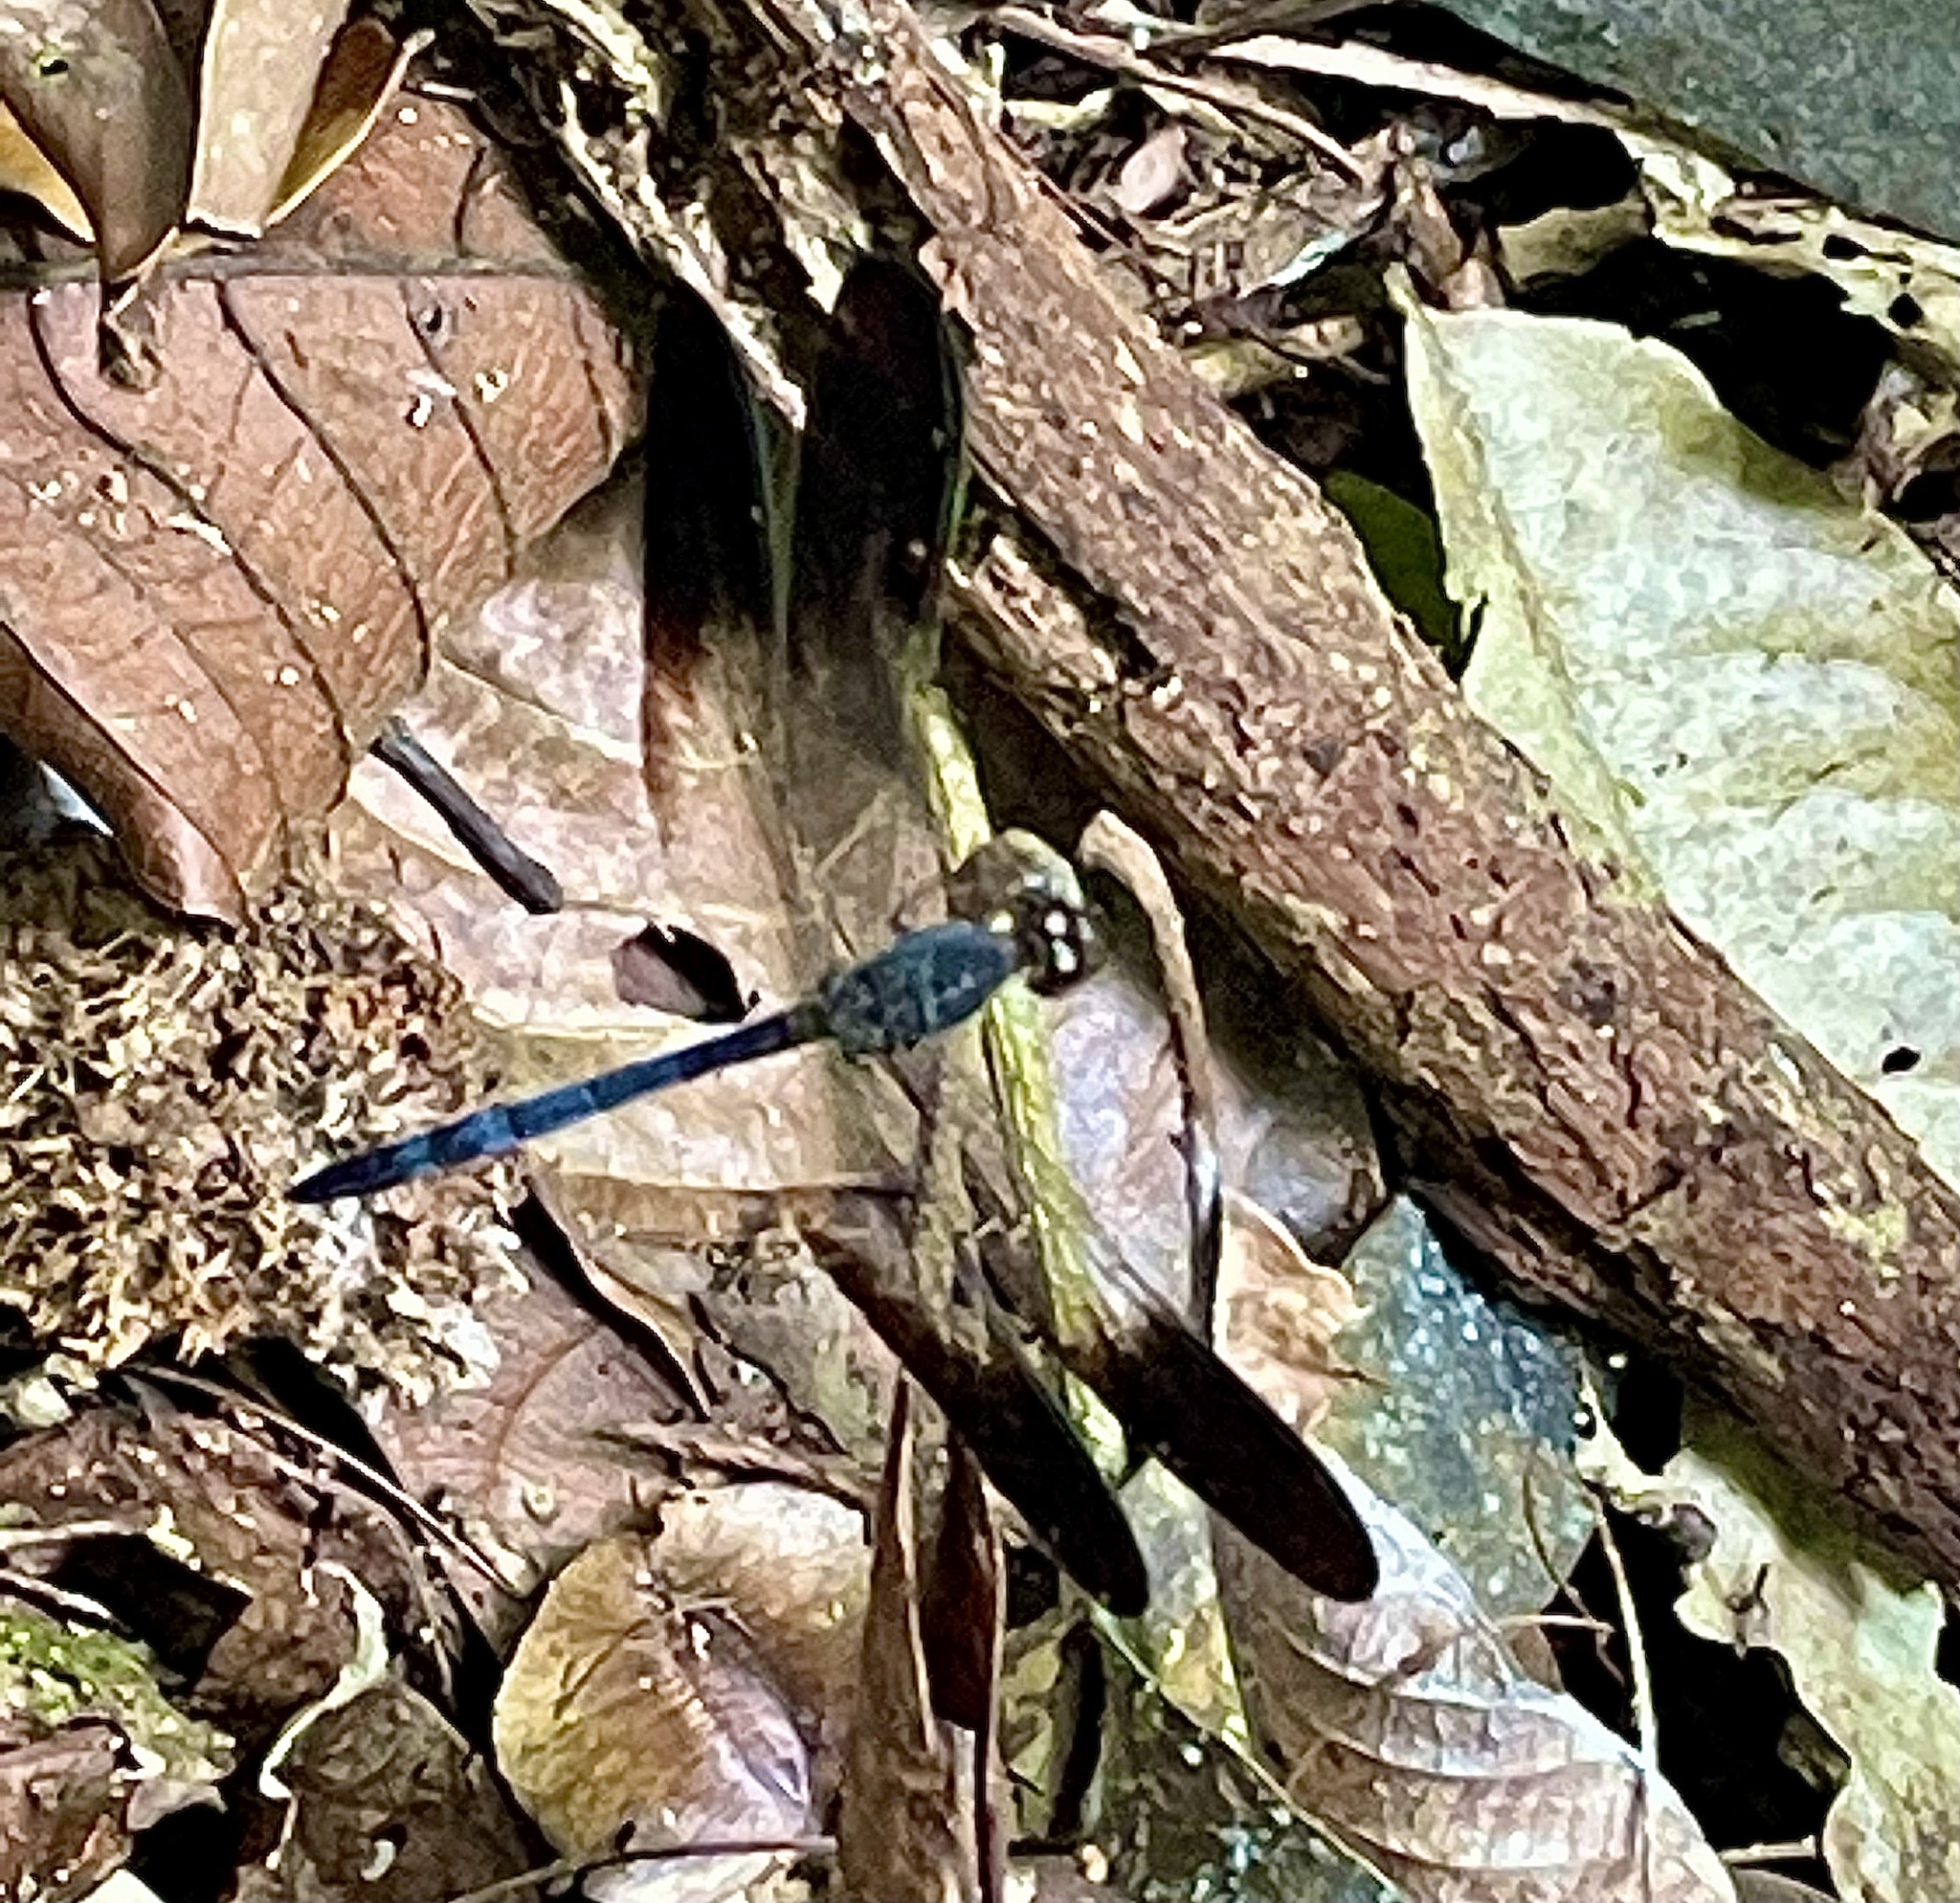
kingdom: Animalia
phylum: Arthropoda
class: Insecta
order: Odonata
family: Libellulidae
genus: Uracis
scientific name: Uracis fastigiata
